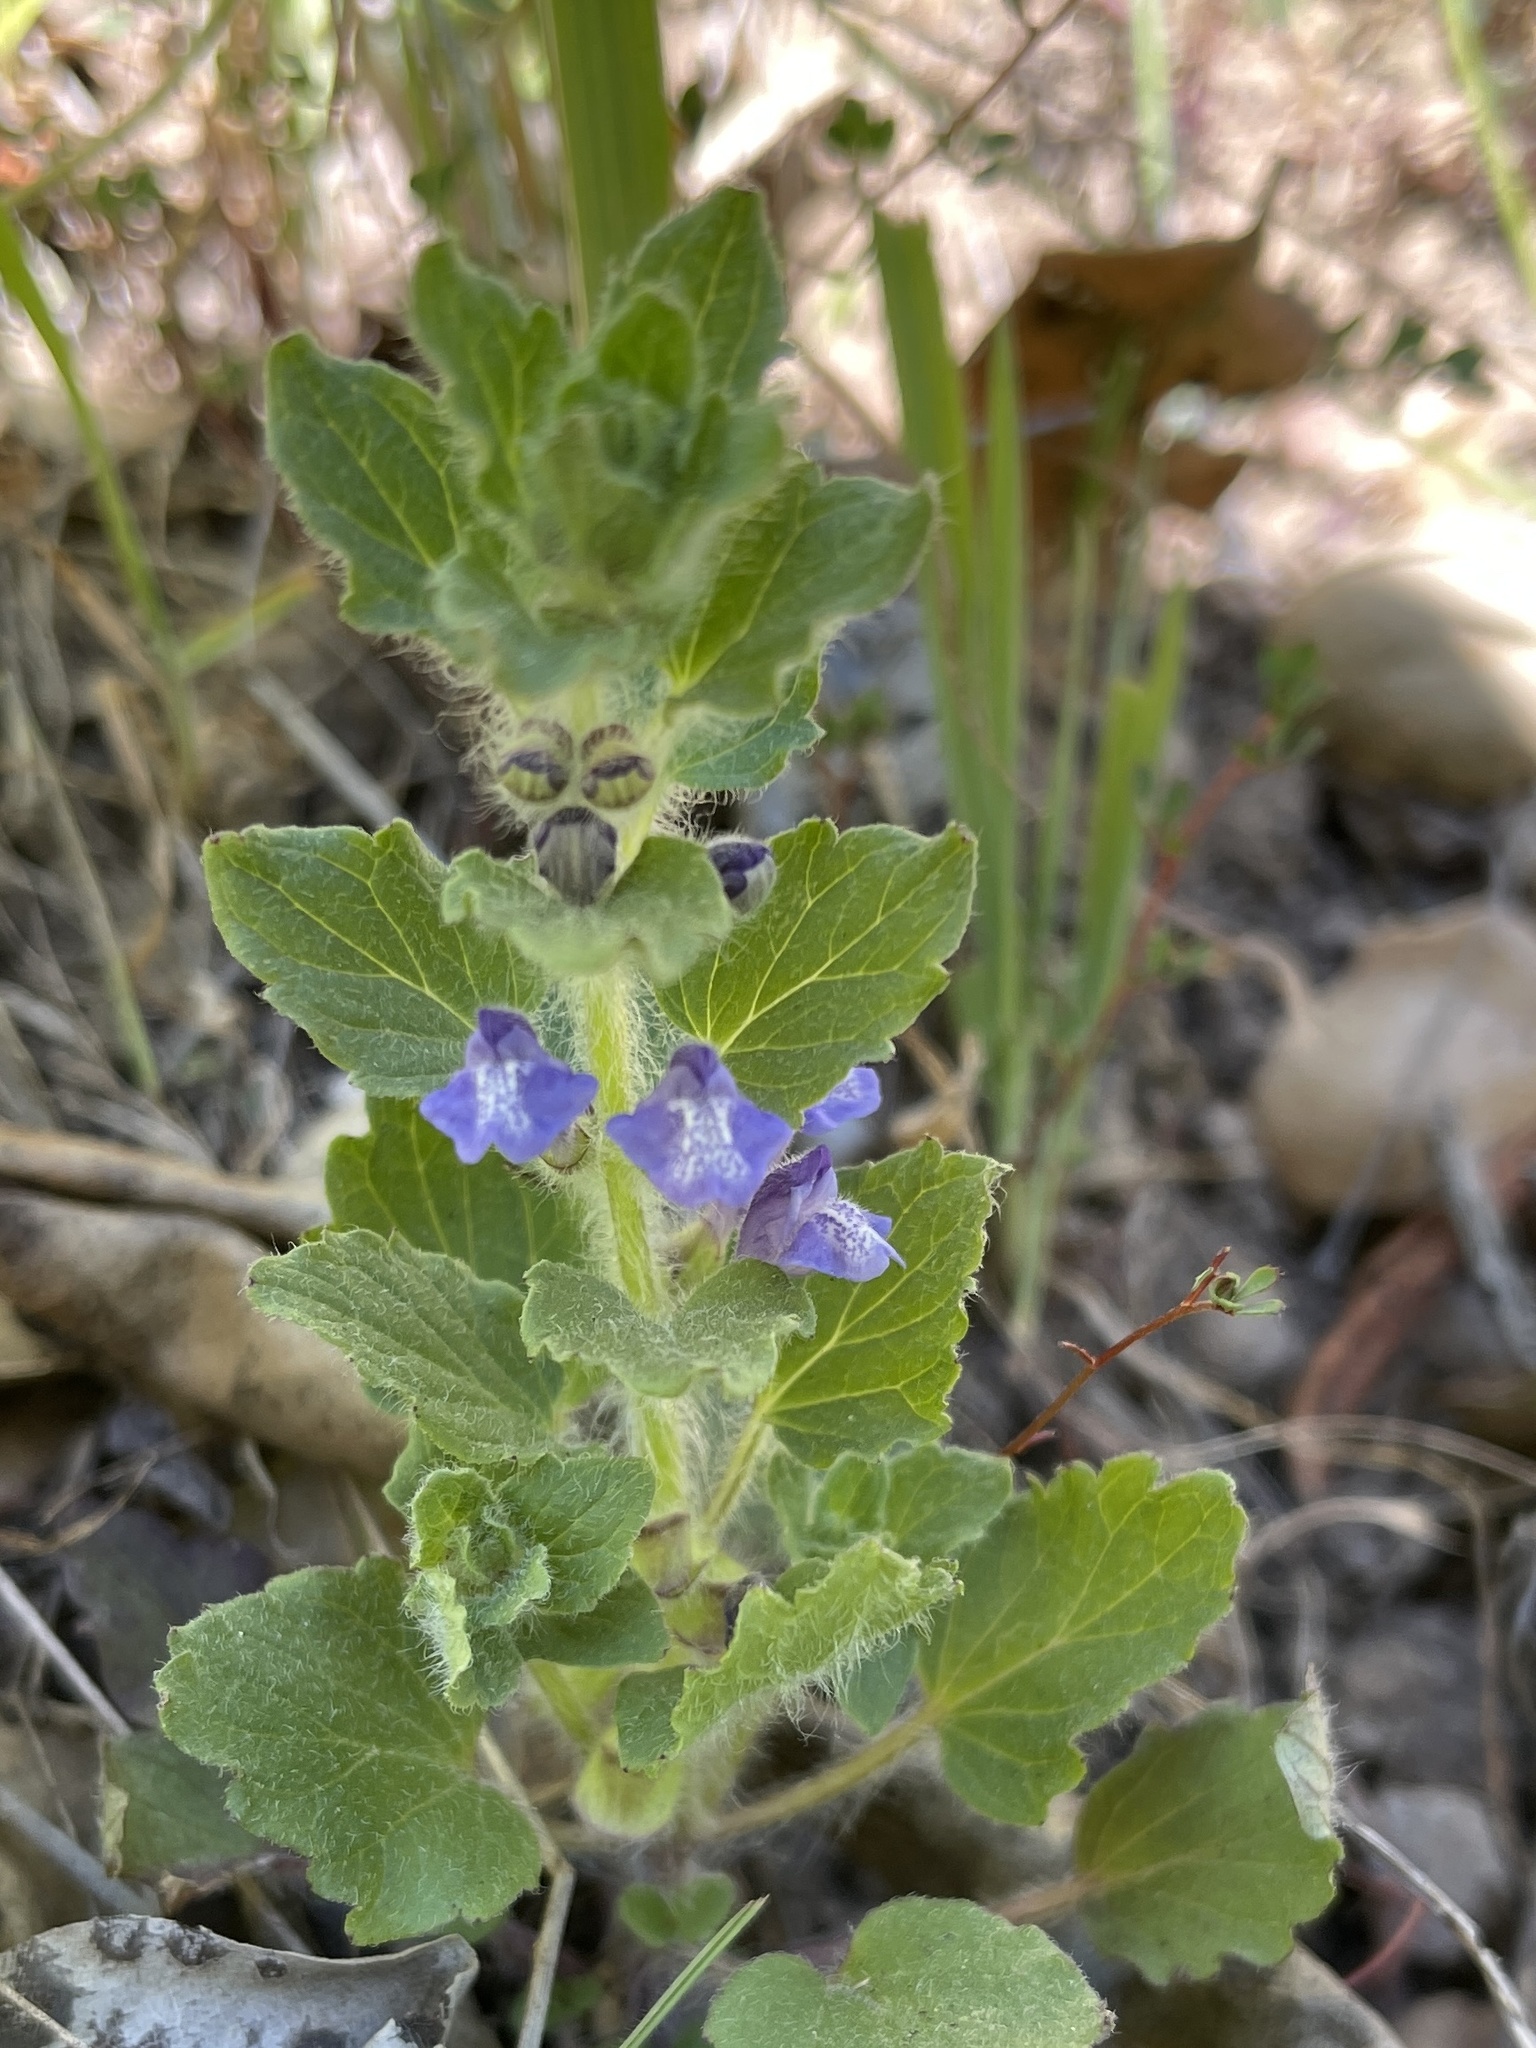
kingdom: Plantae
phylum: Tracheophyta
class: Magnoliopsida
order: Lamiales
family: Lamiaceae
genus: Scutellaria
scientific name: Scutellaria tuberosa
